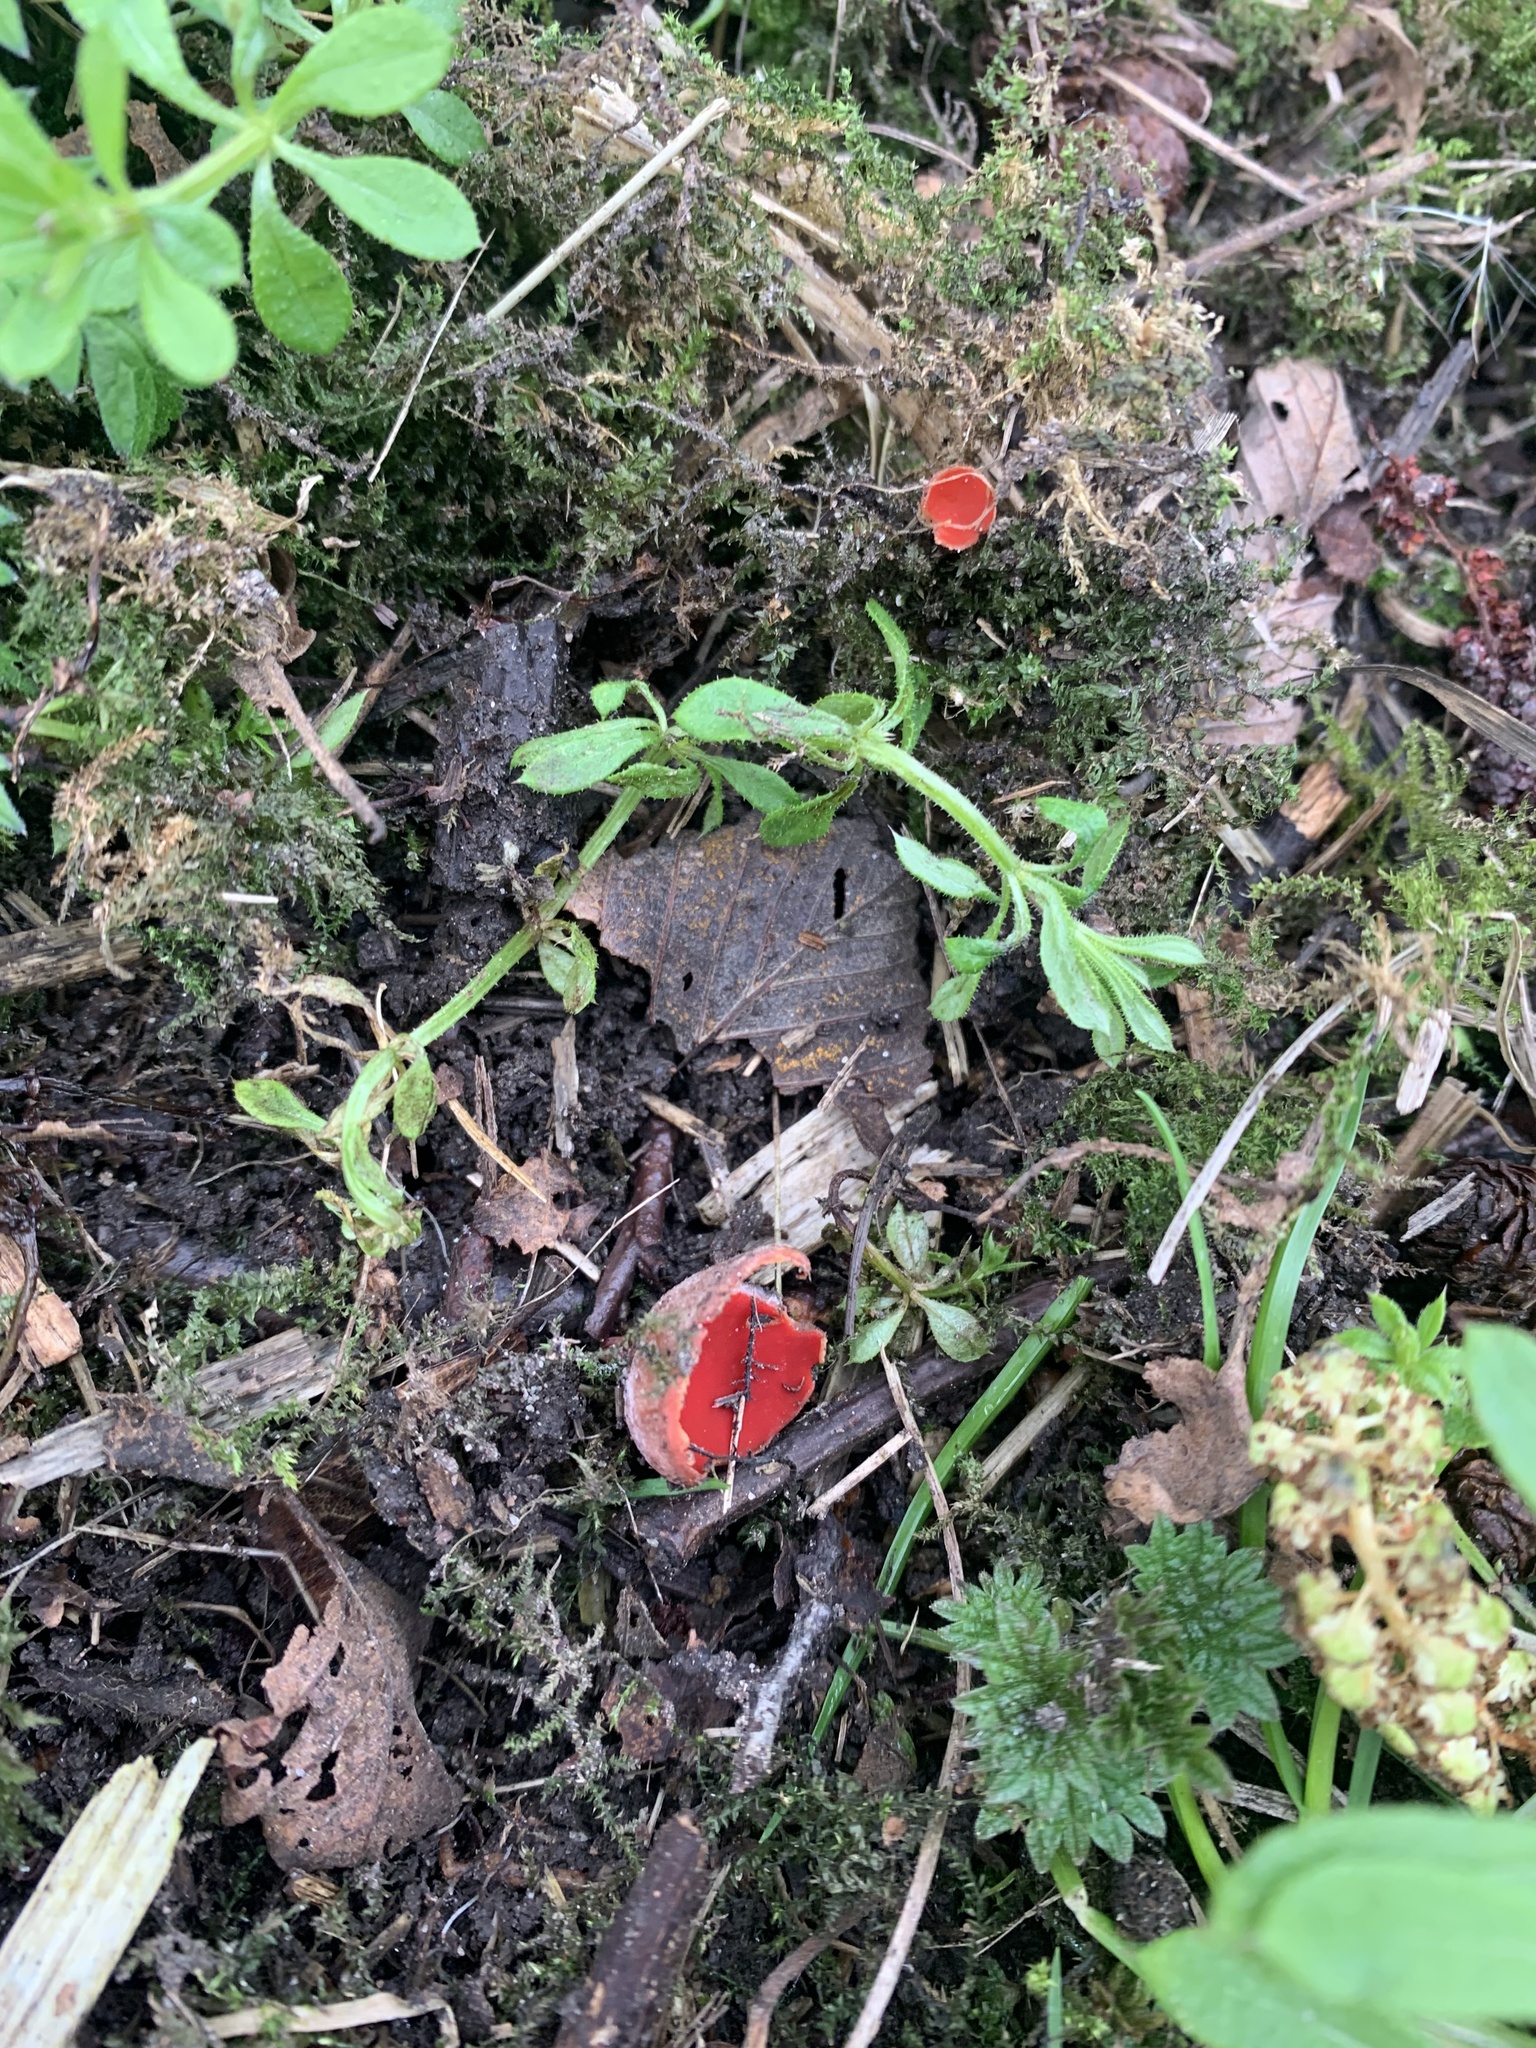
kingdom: Fungi
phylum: Ascomycota
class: Pezizomycetes
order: Pezizales
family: Sarcoscyphaceae
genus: Sarcoscypha
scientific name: Sarcoscypha
